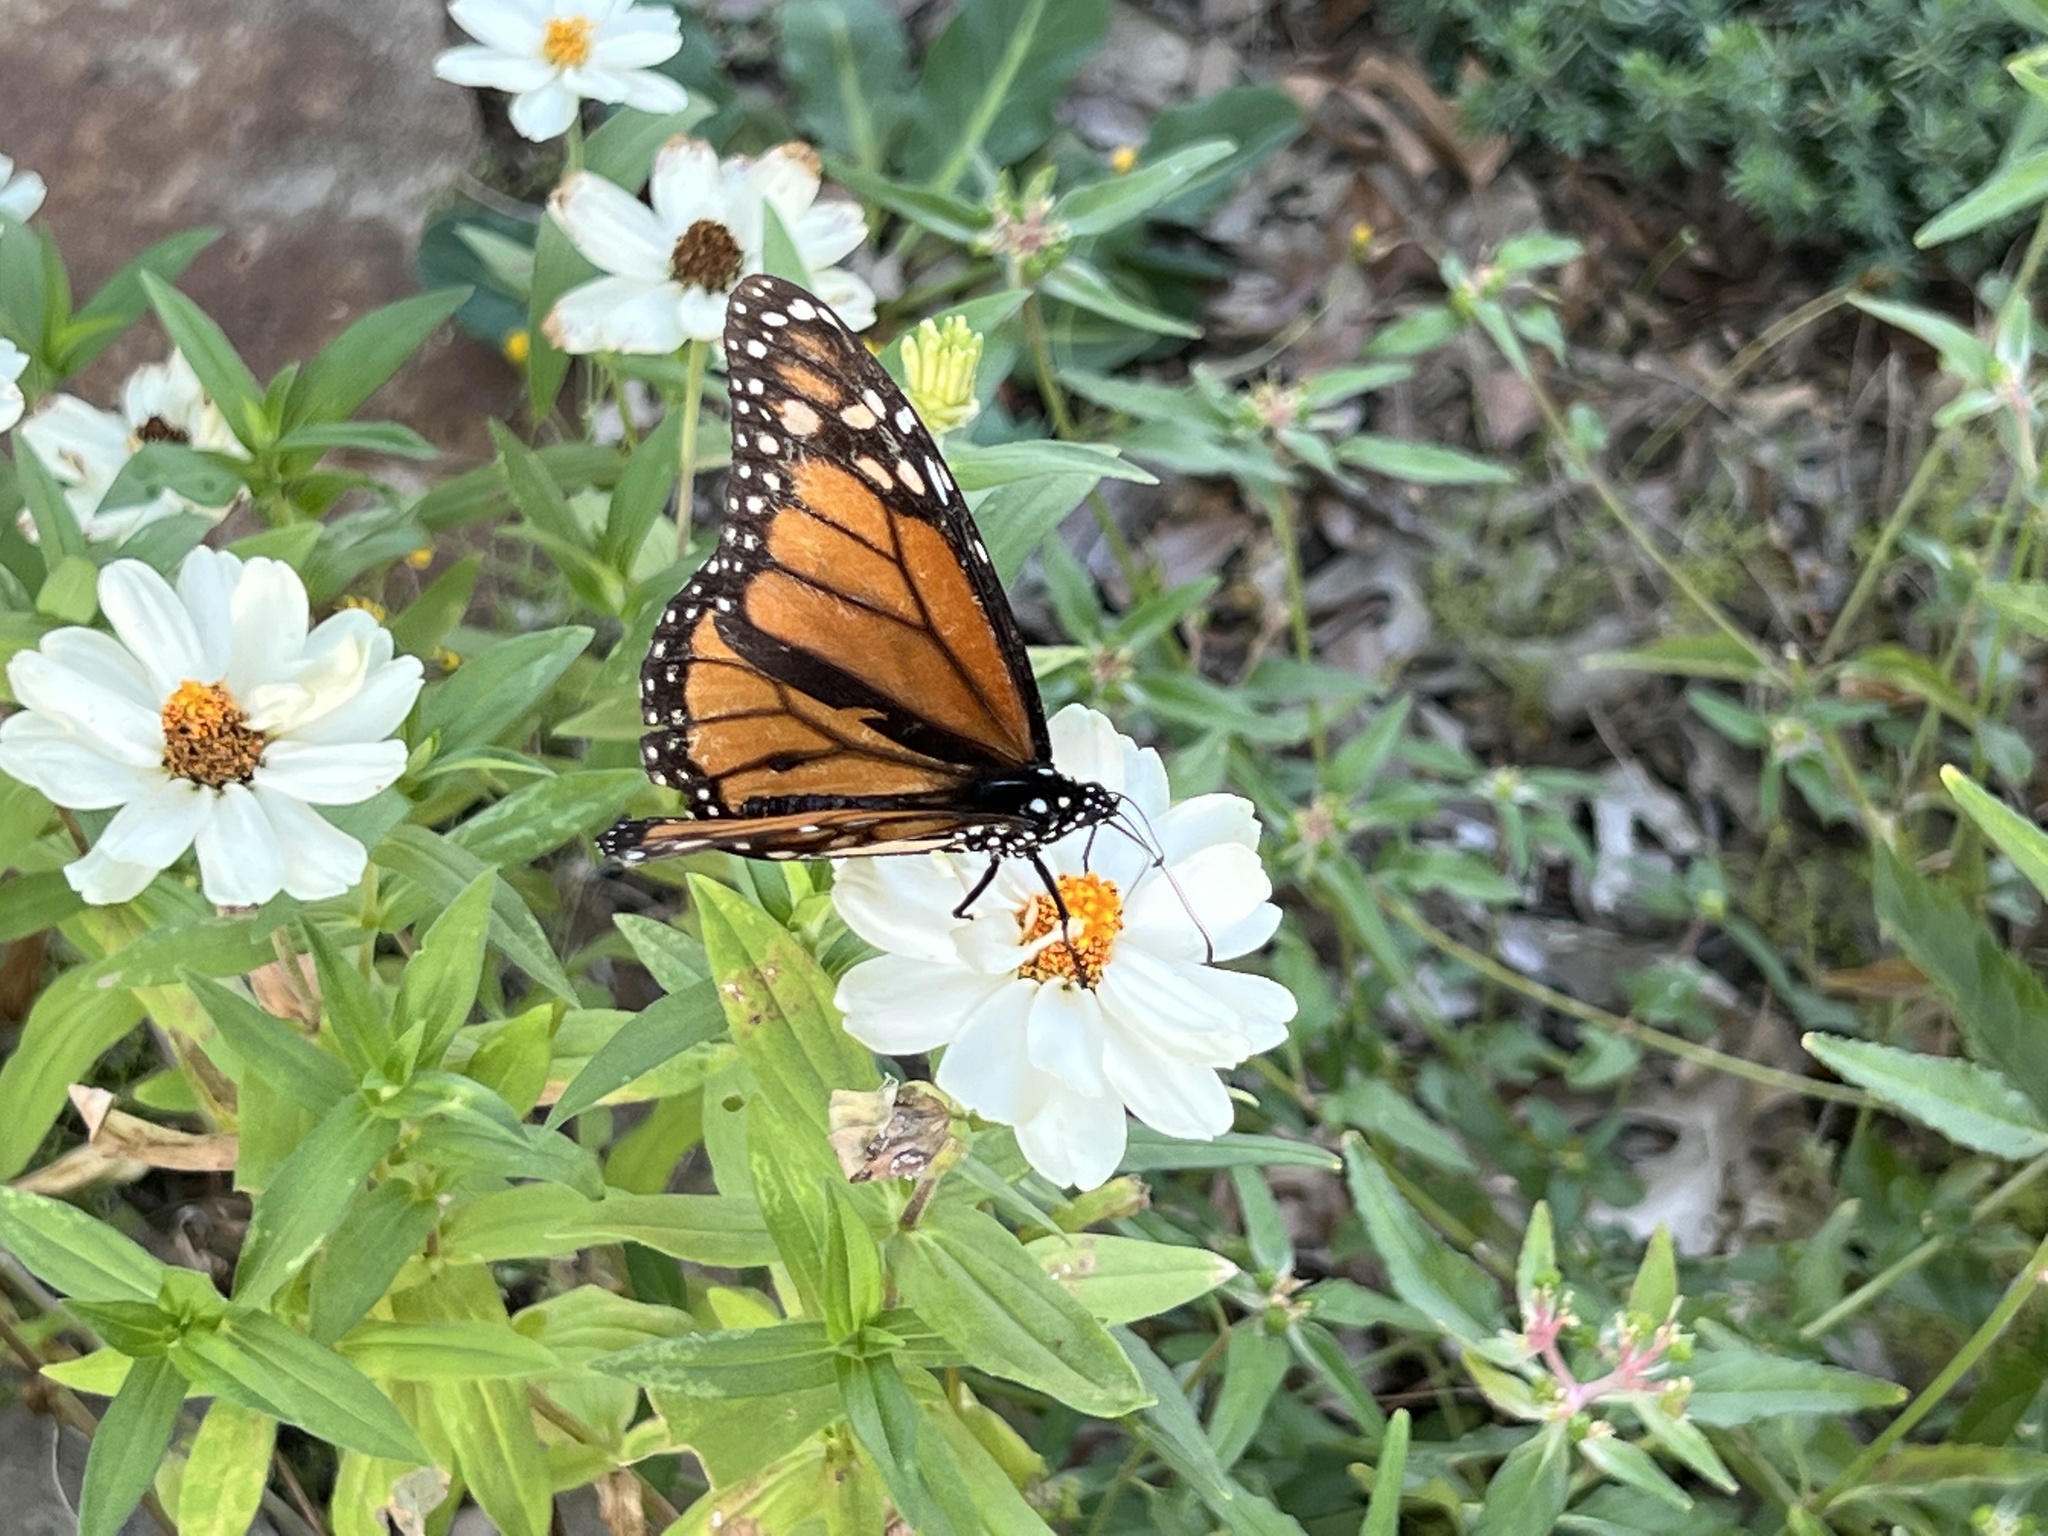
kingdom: Animalia
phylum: Arthropoda
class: Insecta
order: Lepidoptera
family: Nymphalidae
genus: Danaus
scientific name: Danaus plexippus
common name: Monarch
